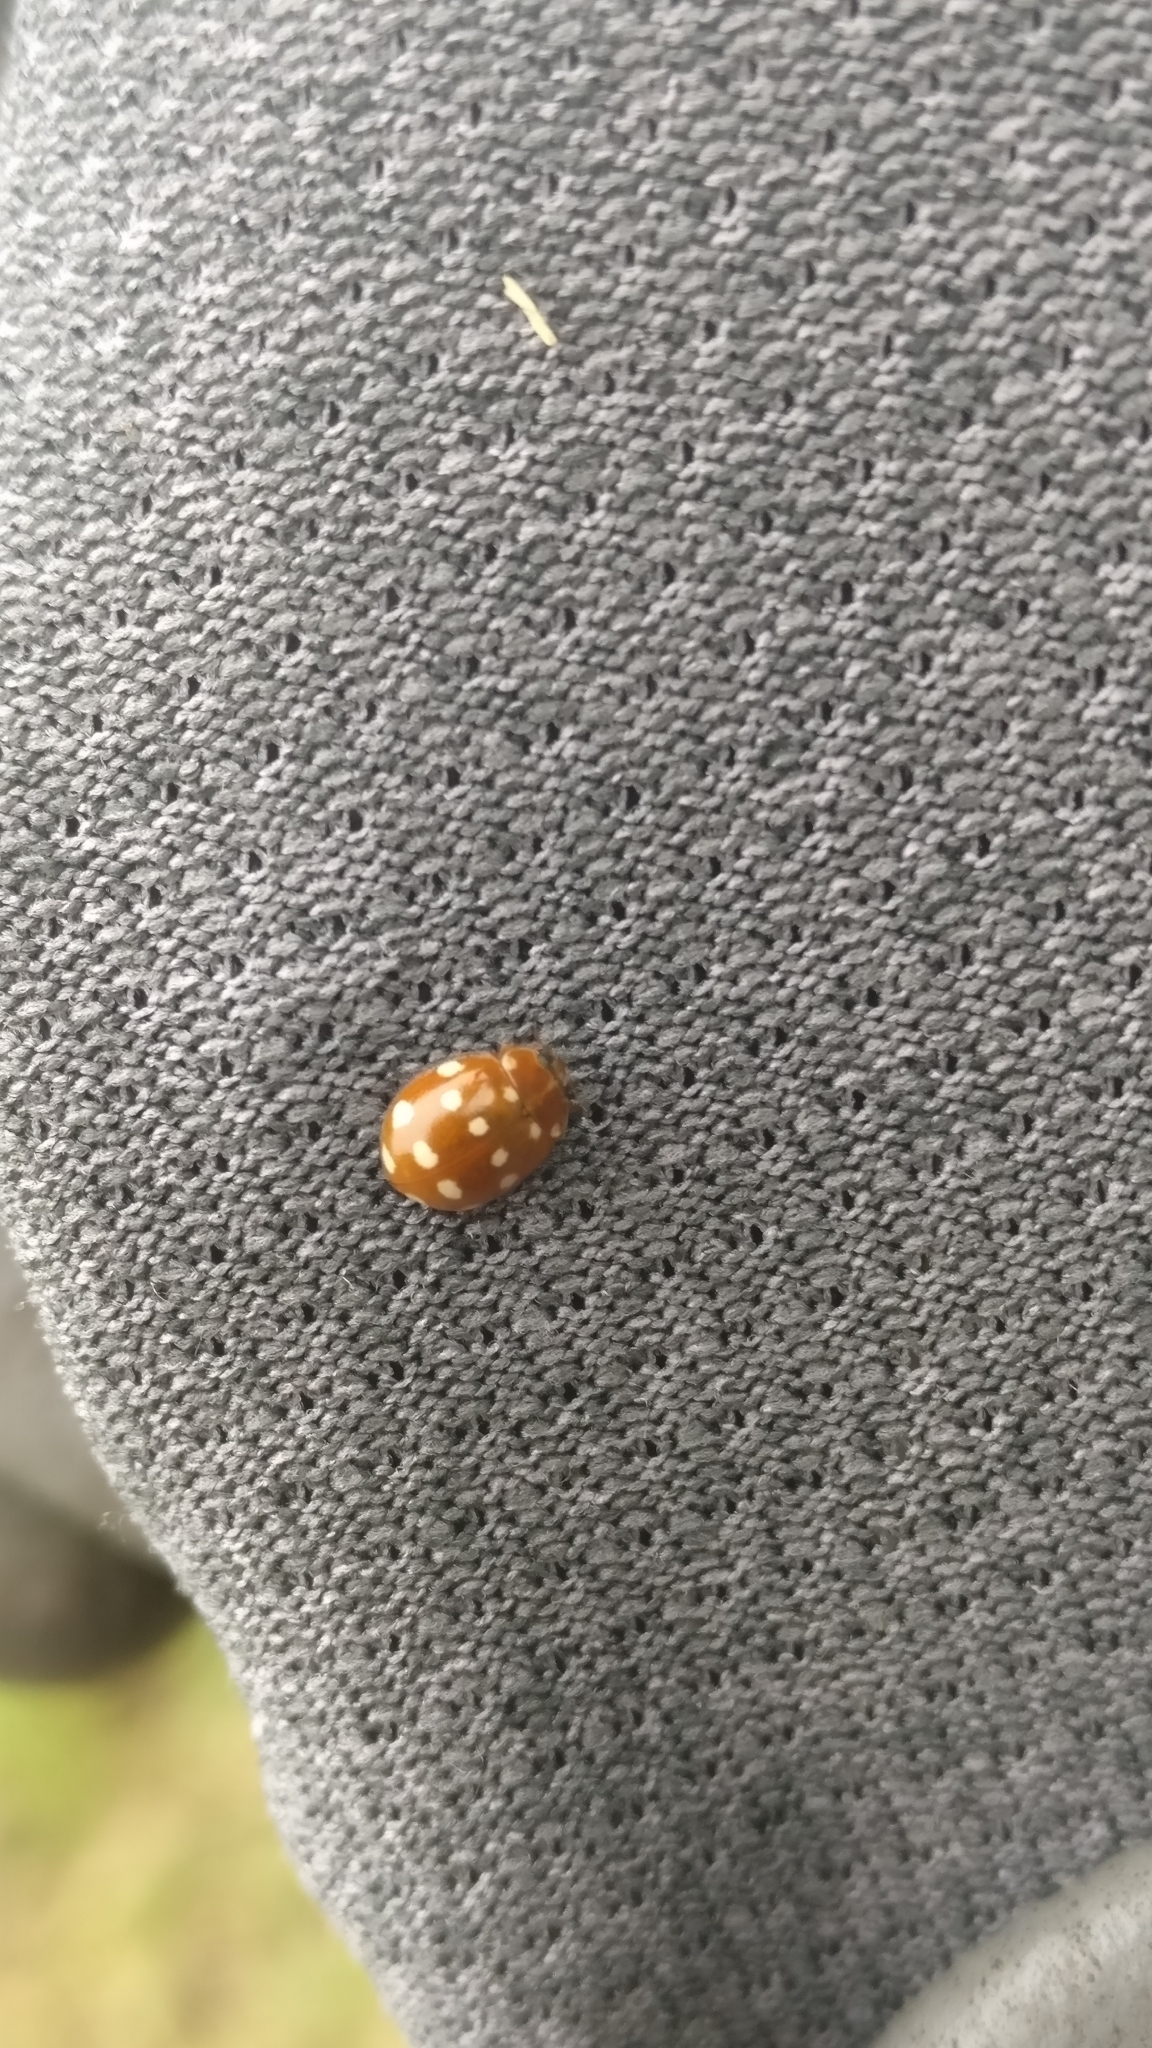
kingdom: Animalia
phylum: Arthropoda
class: Insecta
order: Coleoptera
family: Coccinellidae
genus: Calvia
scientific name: Calvia quatuordecimguttata
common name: Cream-spot ladybird
